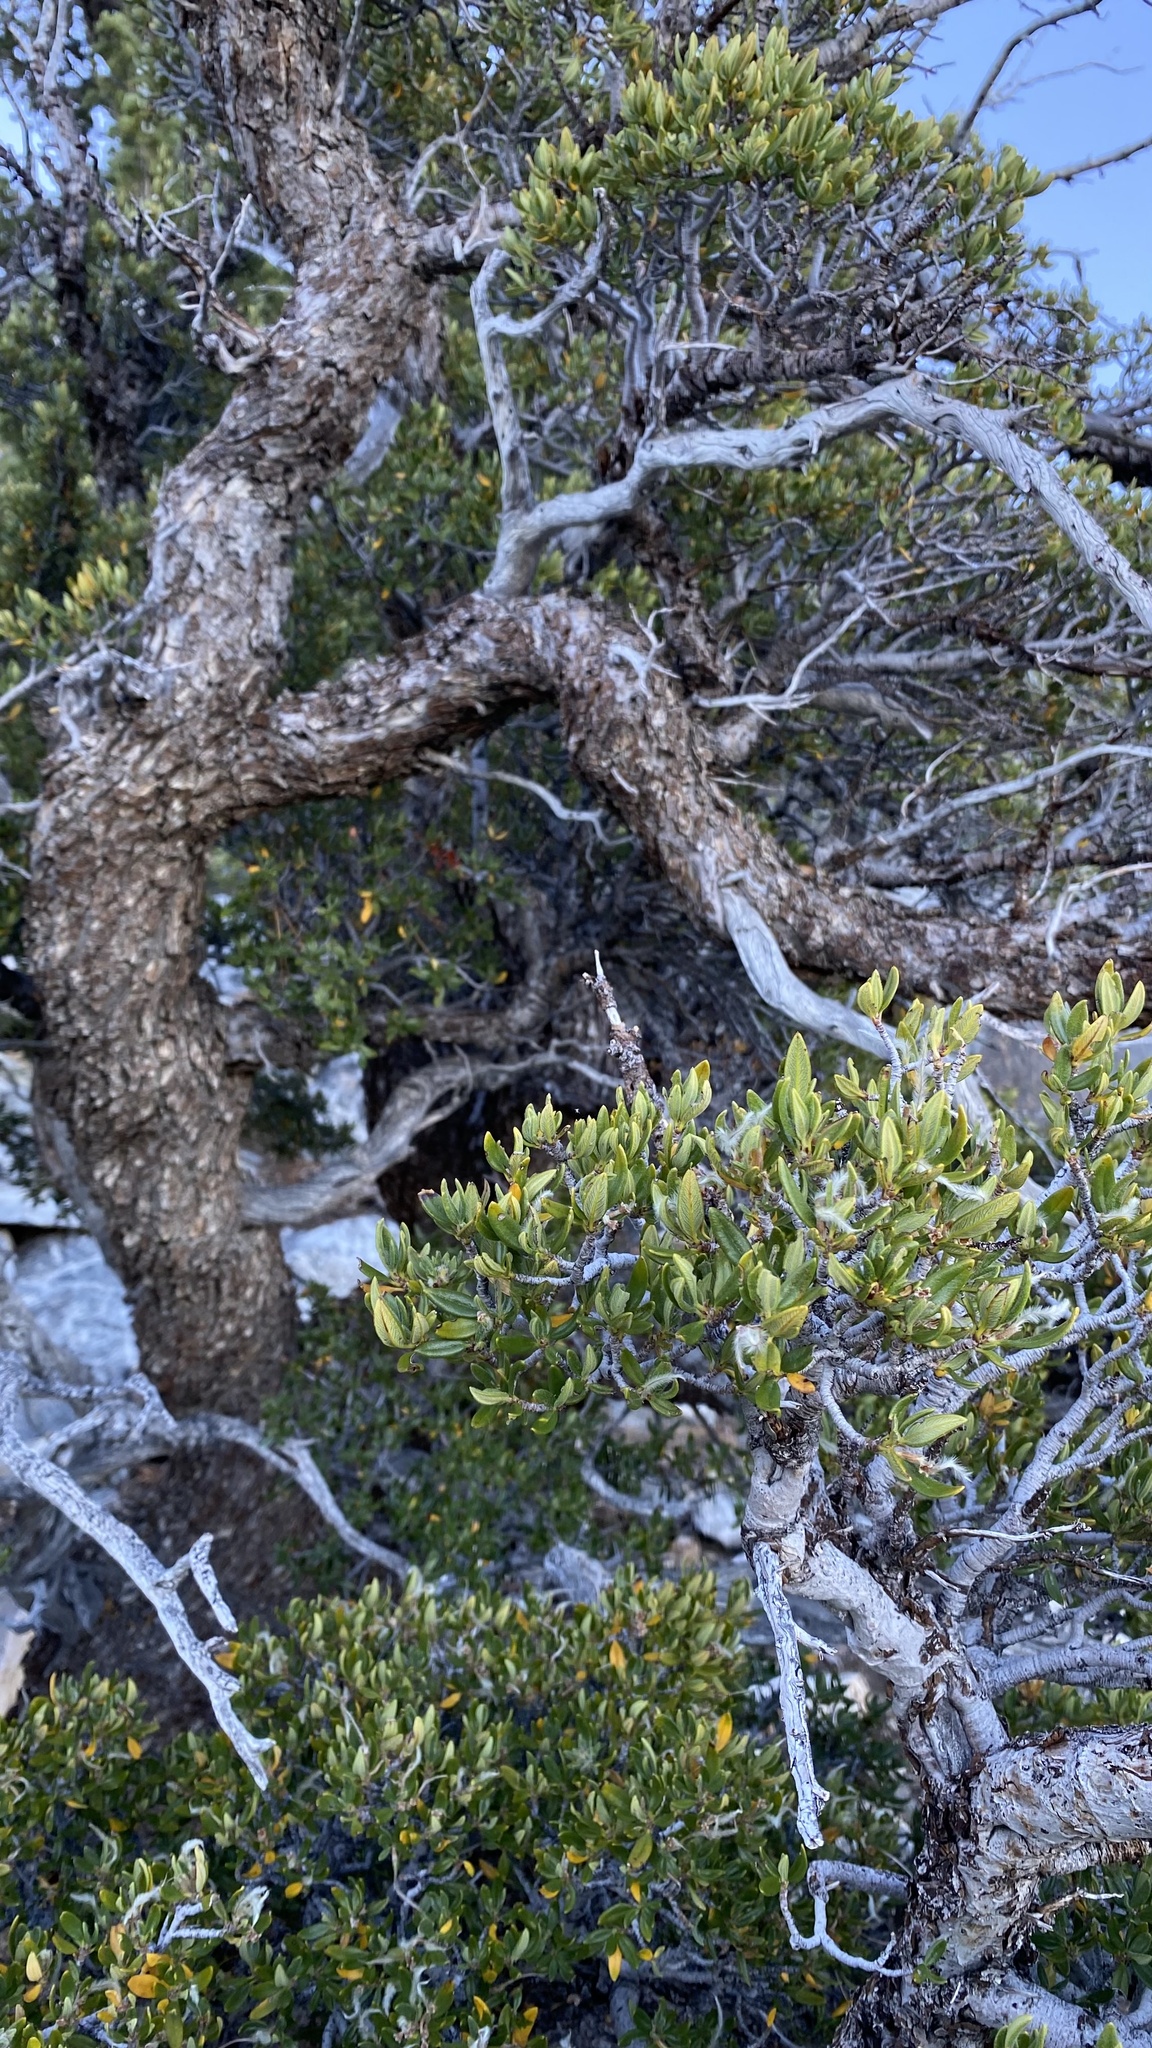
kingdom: Plantae
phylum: Tracheophyta
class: Magnoliopsida
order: Rosales
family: Rosaceae
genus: Cercocarpus
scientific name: Cercocarpus ledifolius
